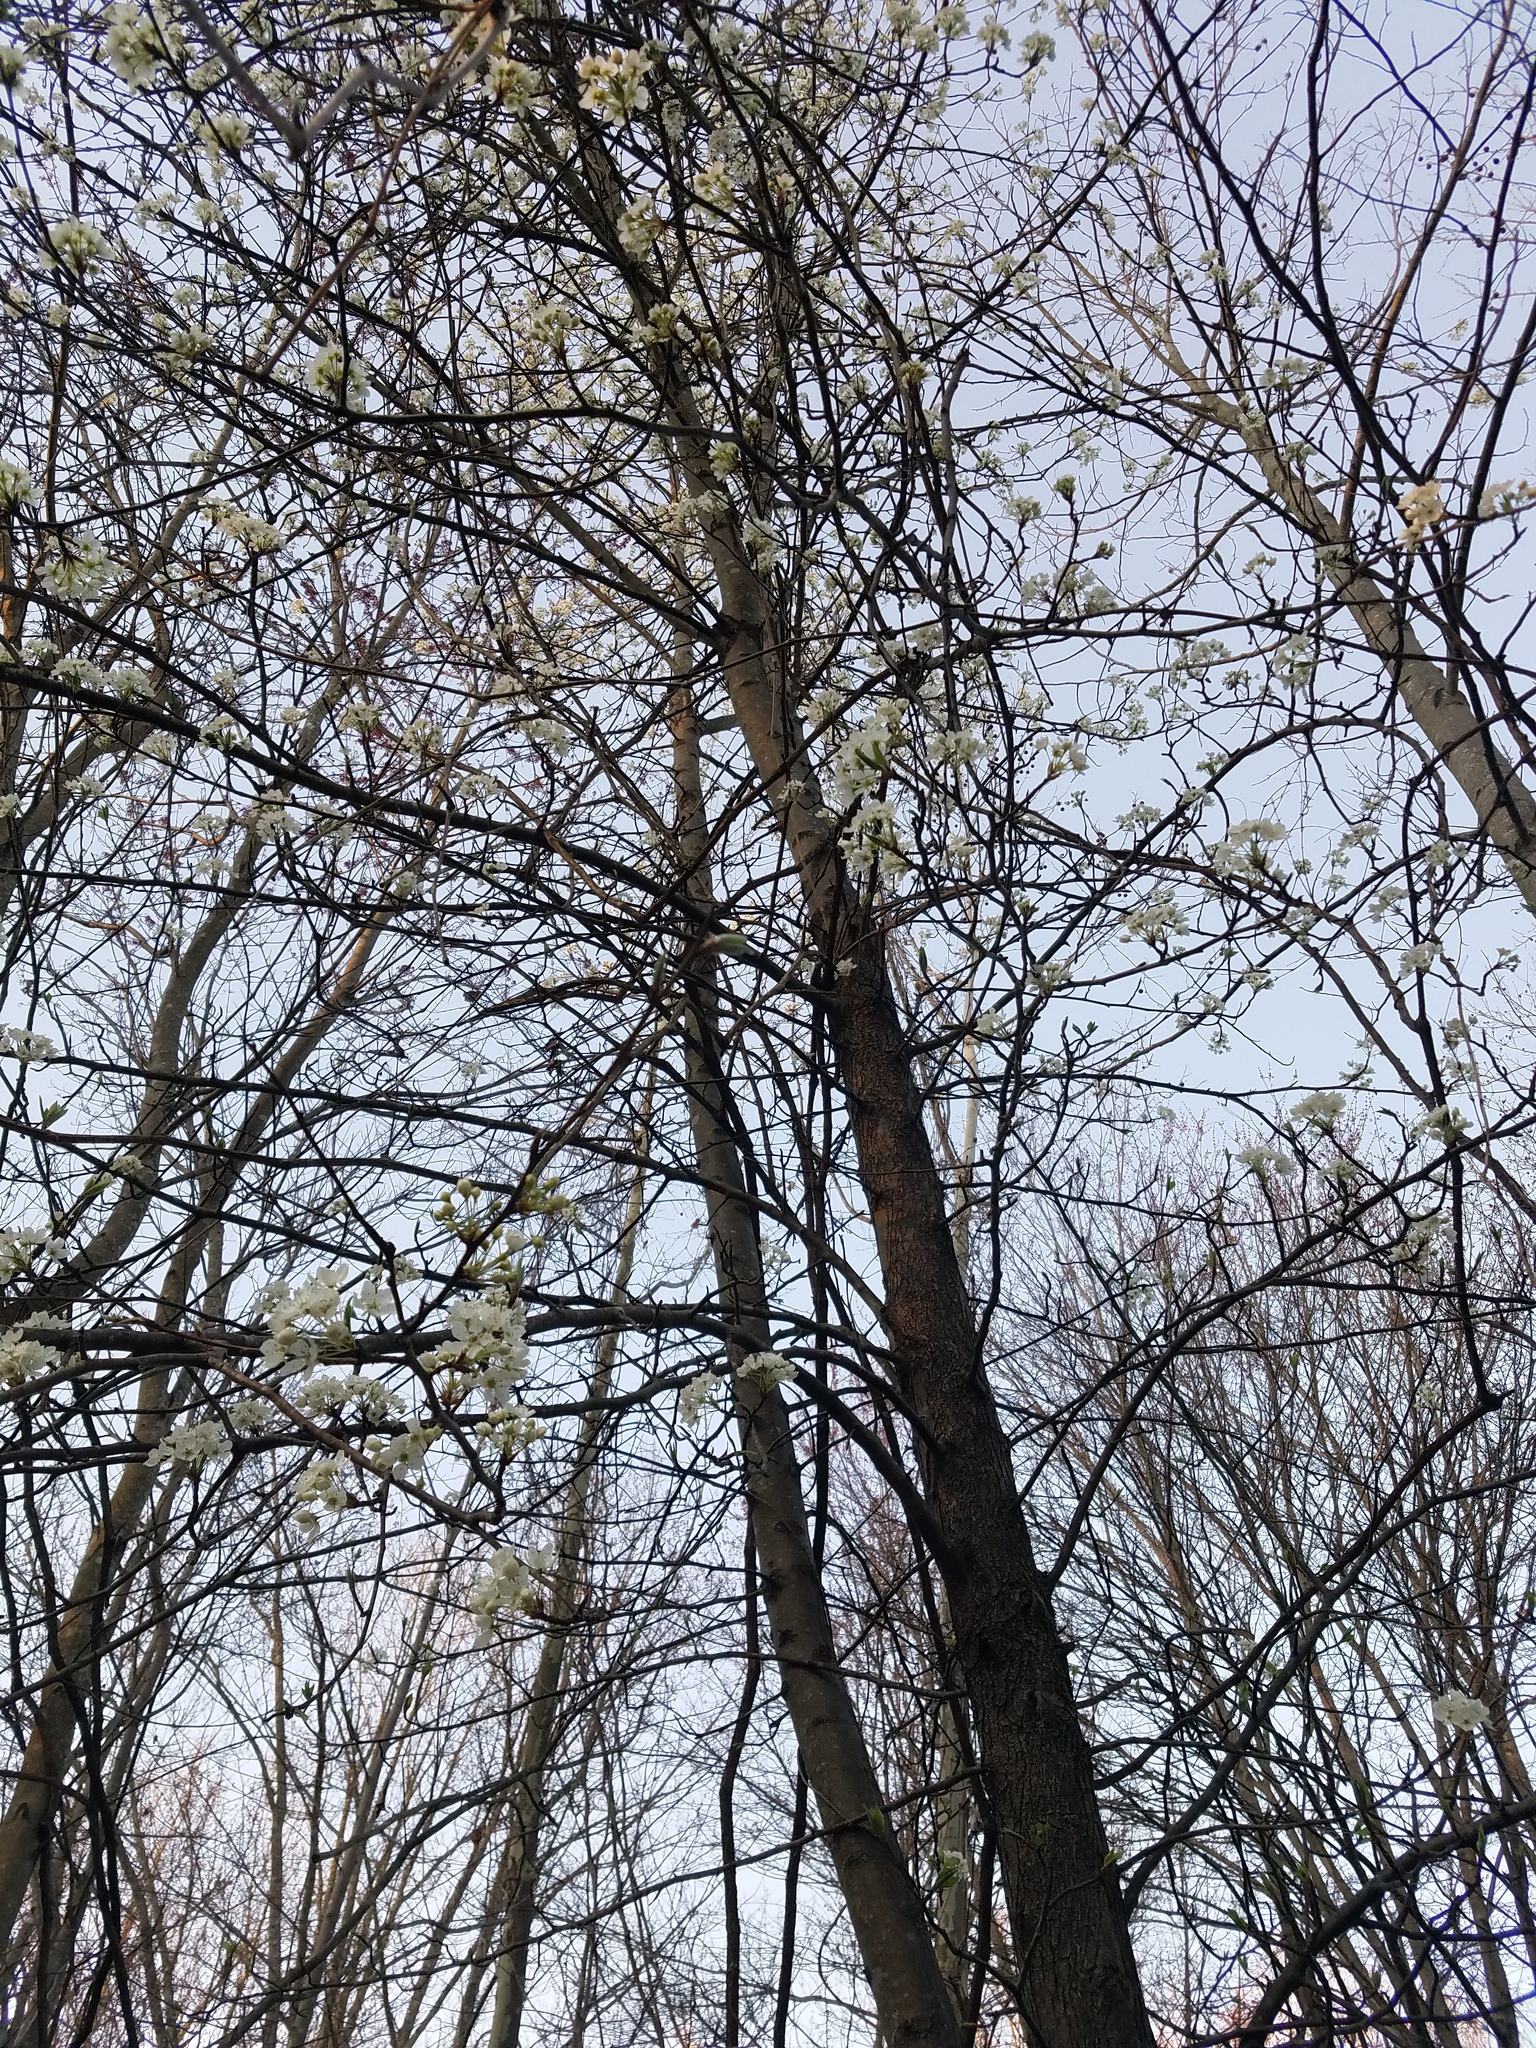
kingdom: Plantae
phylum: Tracheophyta
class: Magnoliopsida
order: Rosales
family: Rosaceae
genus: Pyrus
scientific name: Pyrus calleryana
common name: Callery pear
